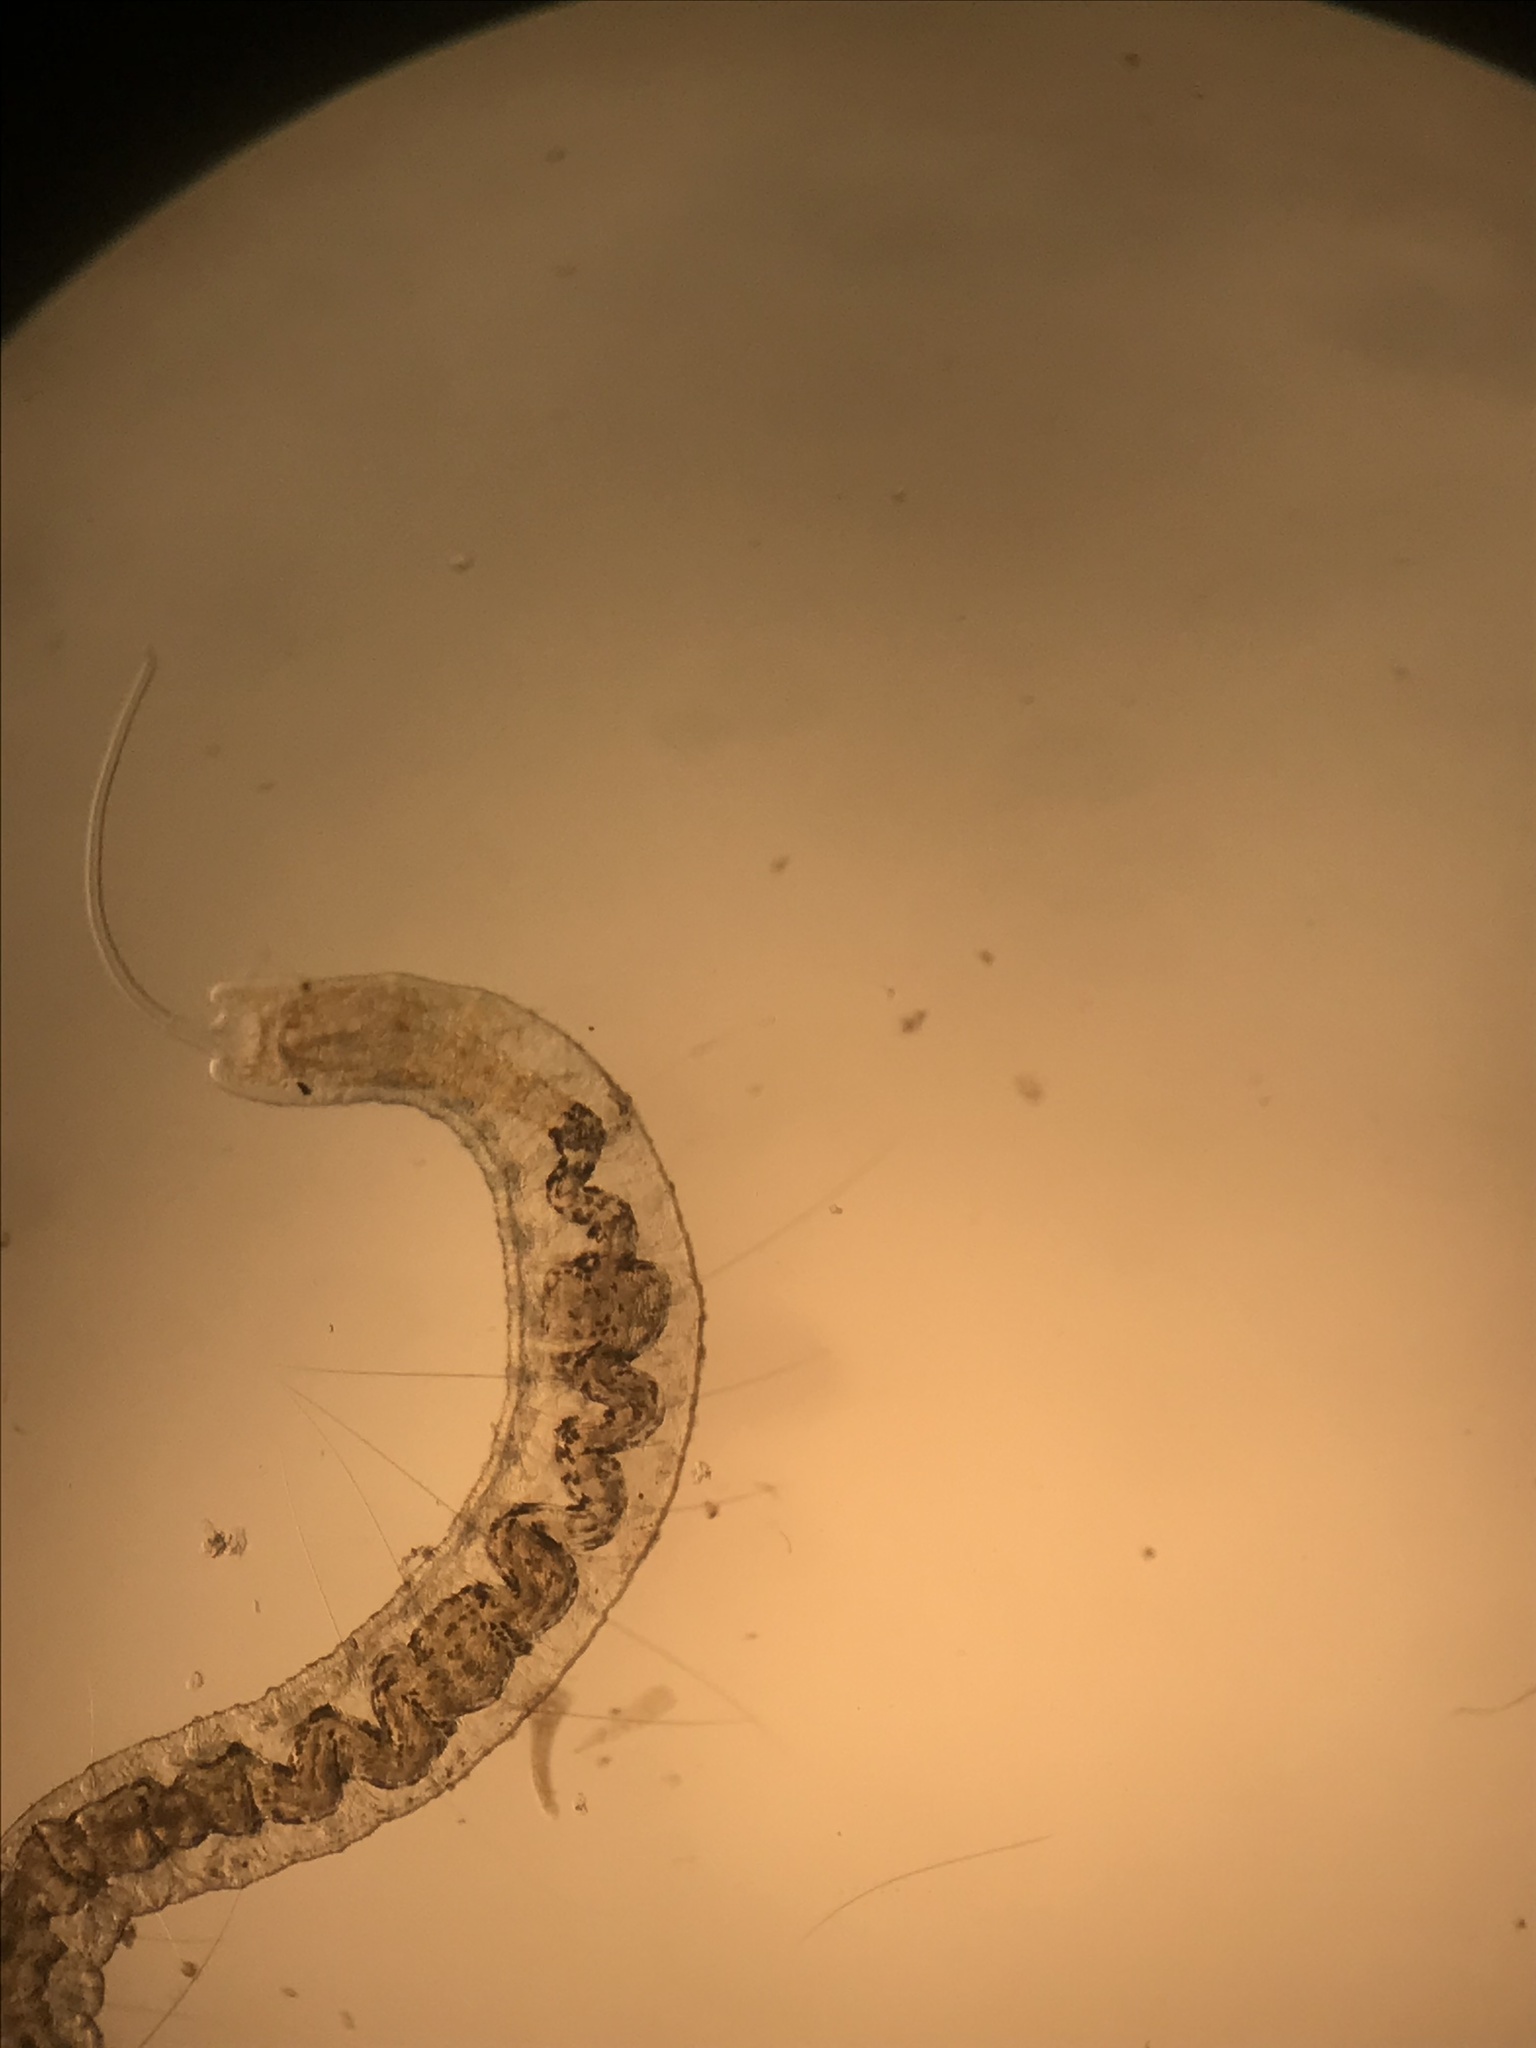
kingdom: Animalia
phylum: Annelida
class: Clitellata
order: Tubificida
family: Naididae
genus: Stylaria
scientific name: Stylaria lacustris
